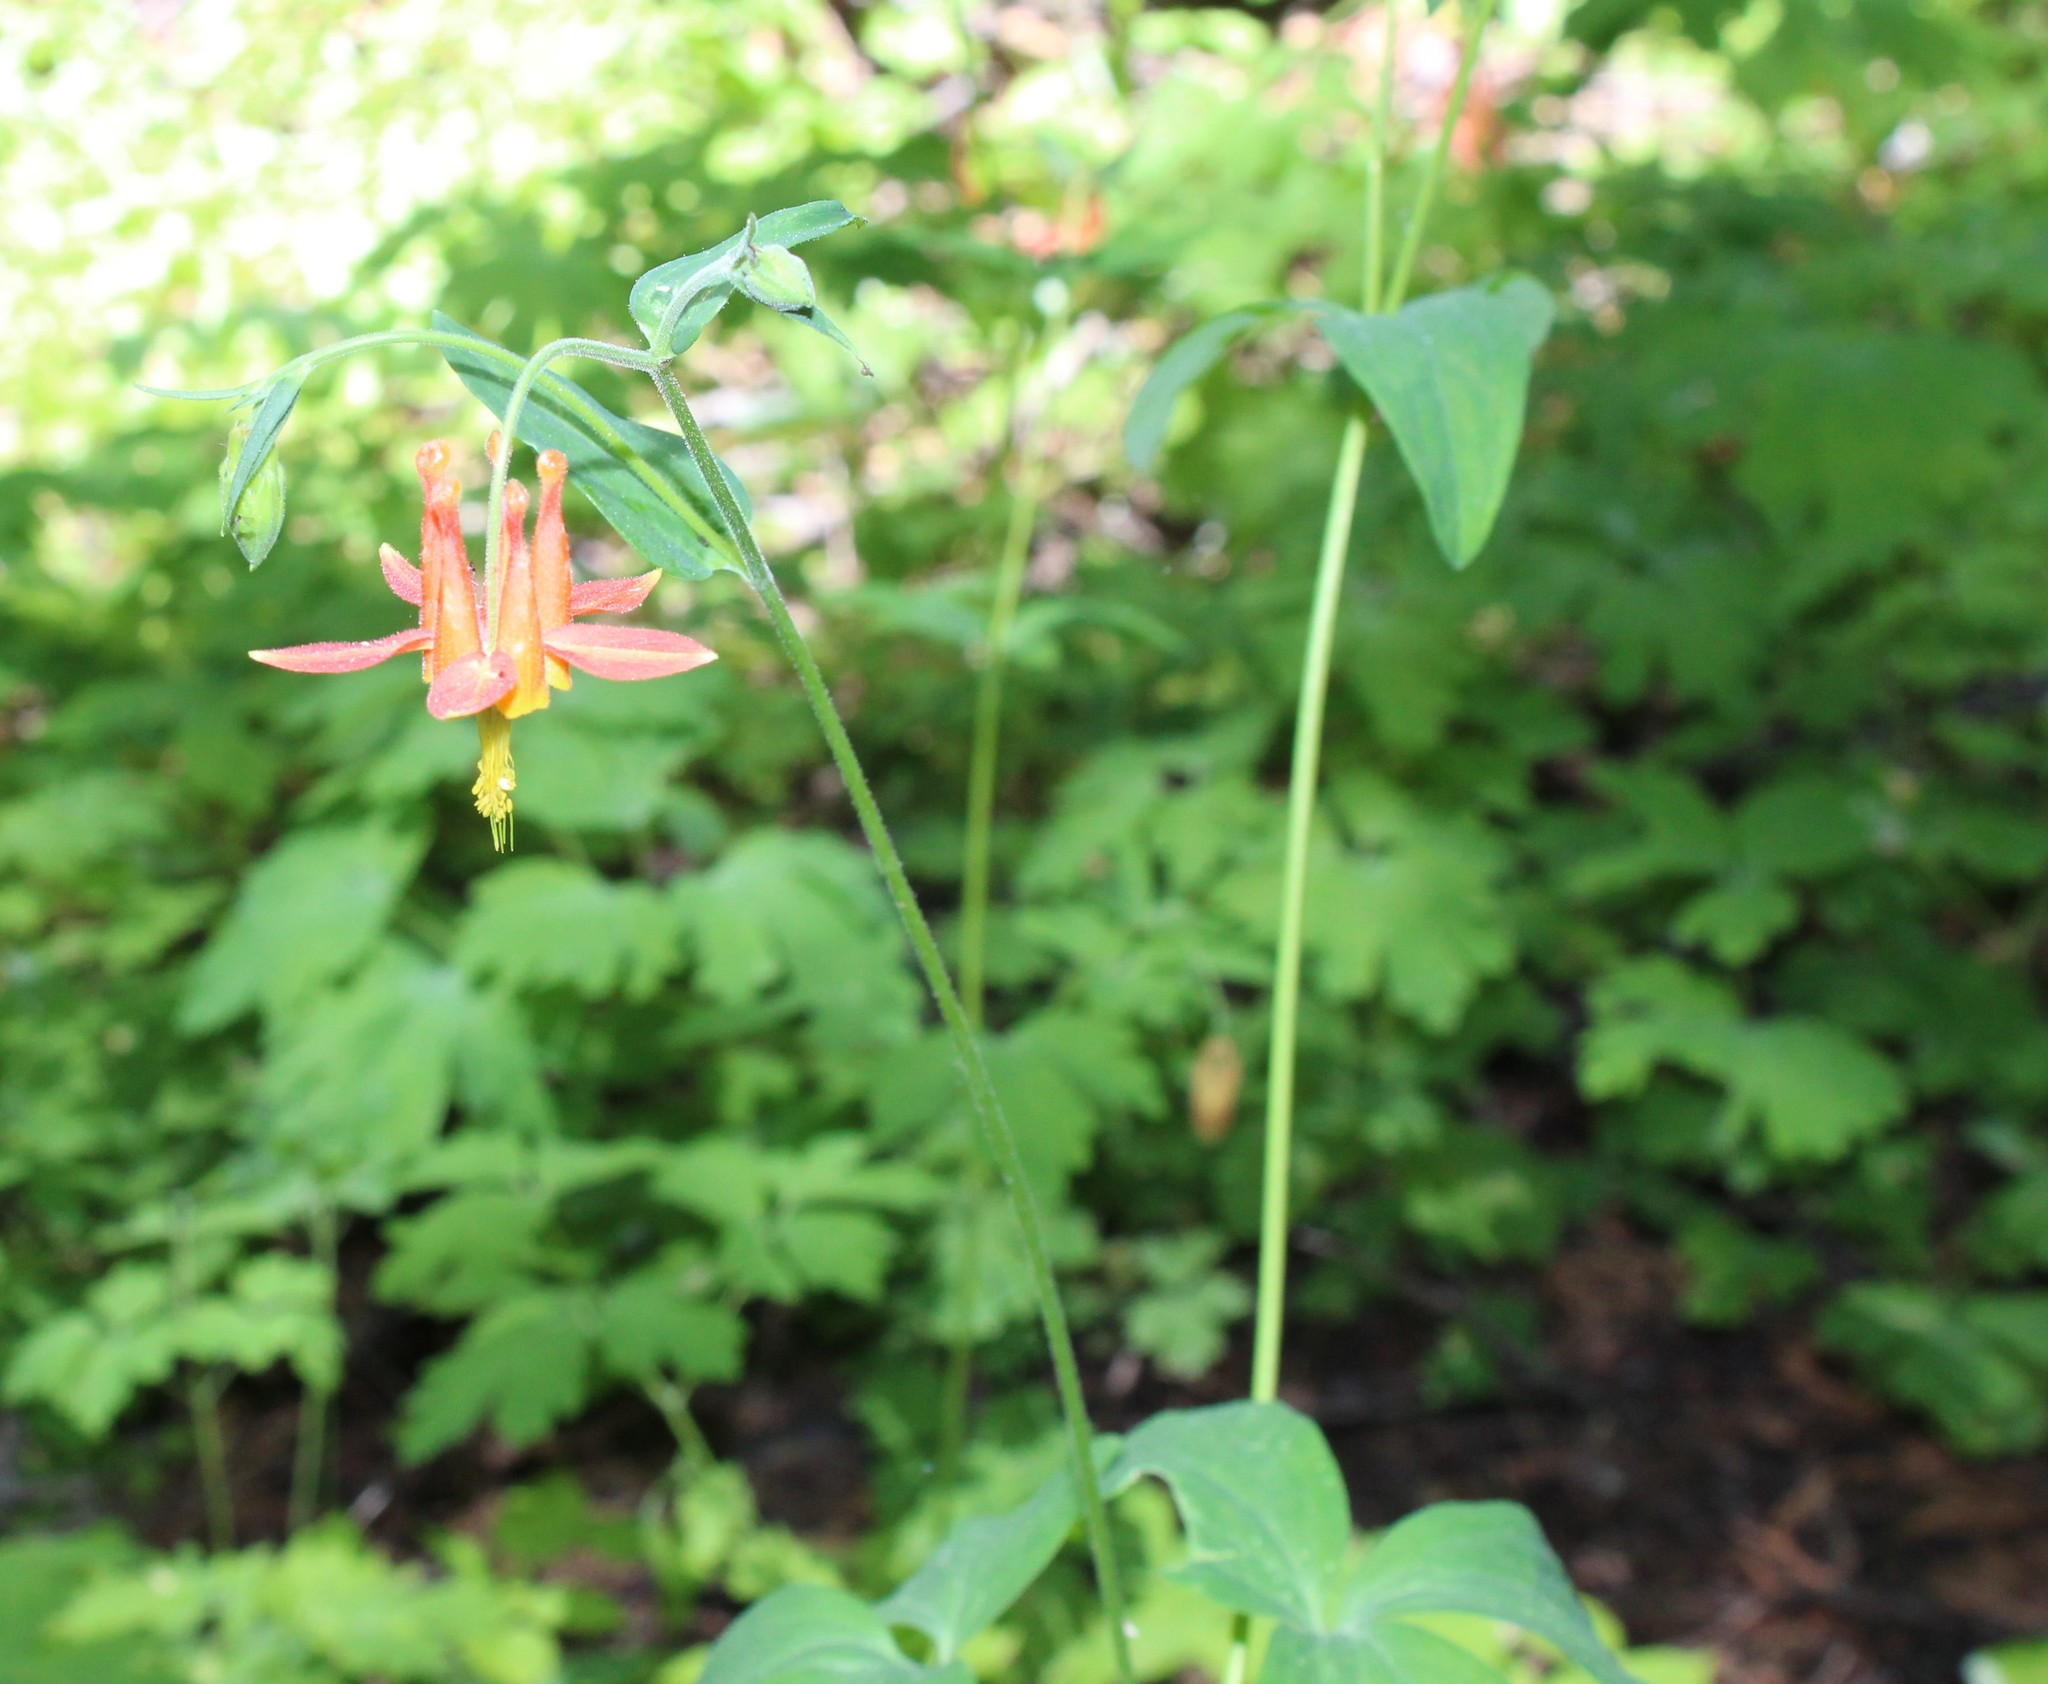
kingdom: Plantae
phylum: Tracheophyta
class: Magnoliopsida
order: Ranunculales
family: Ranunculaceae
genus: Aquilegia
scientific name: Aquilegia formosa
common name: Sitka columbine
